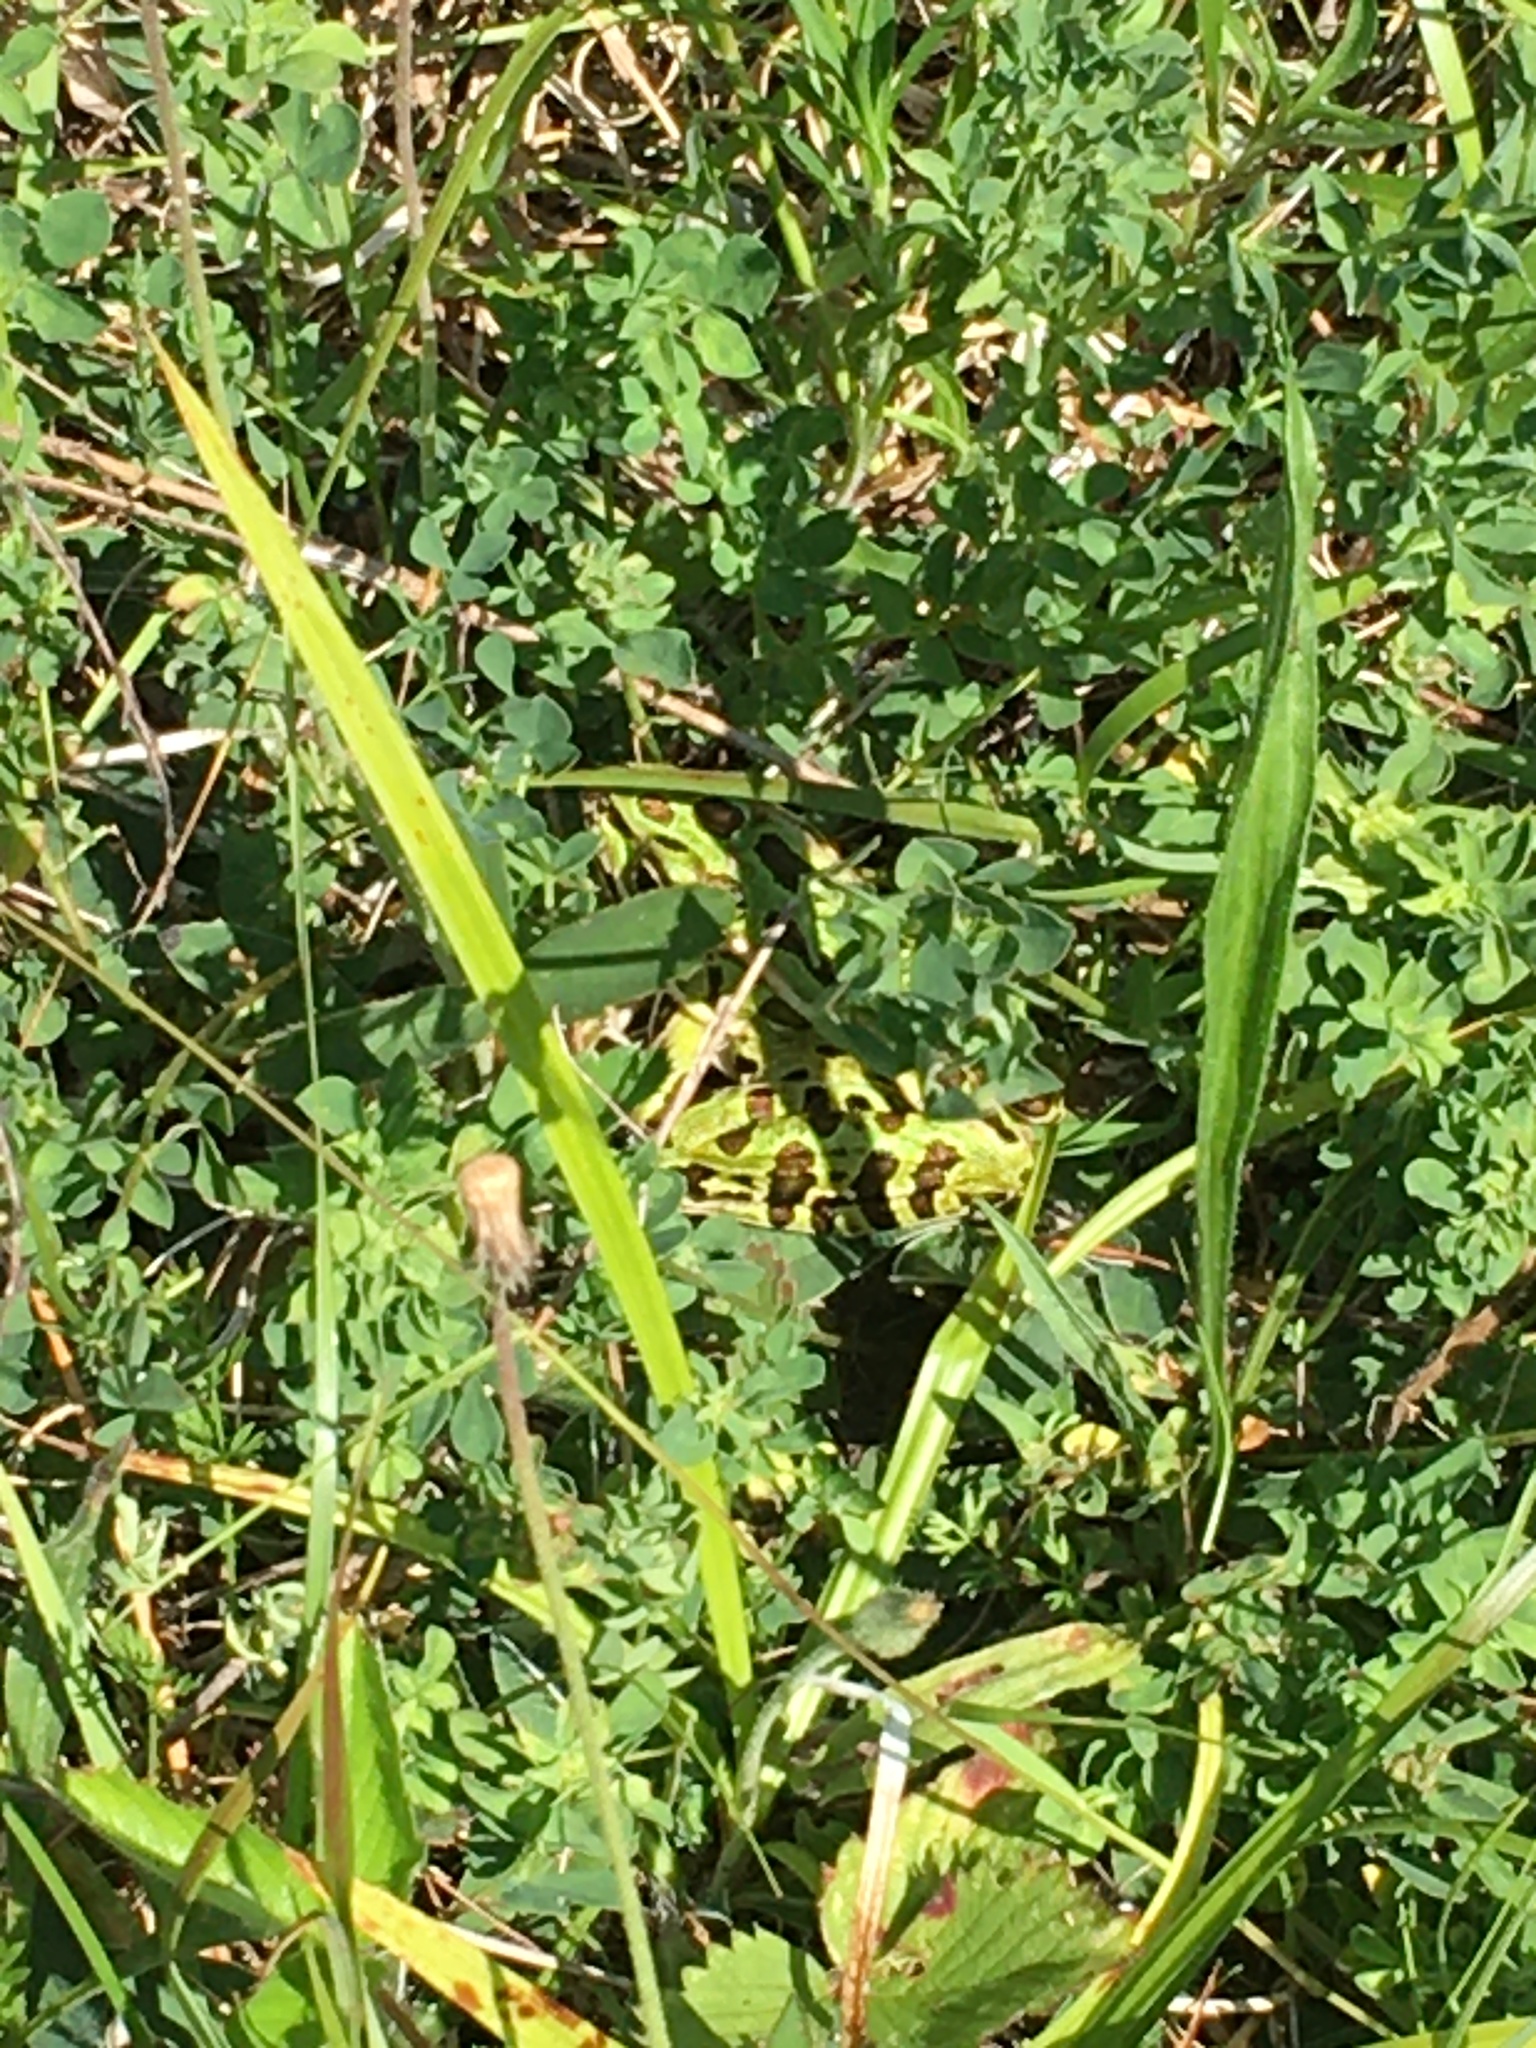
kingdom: Animalia
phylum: Chordata
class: Amphibia
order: Anura
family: Ranidae
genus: Lithobates
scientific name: Lithobates pipiens
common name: Northern leopard frog
